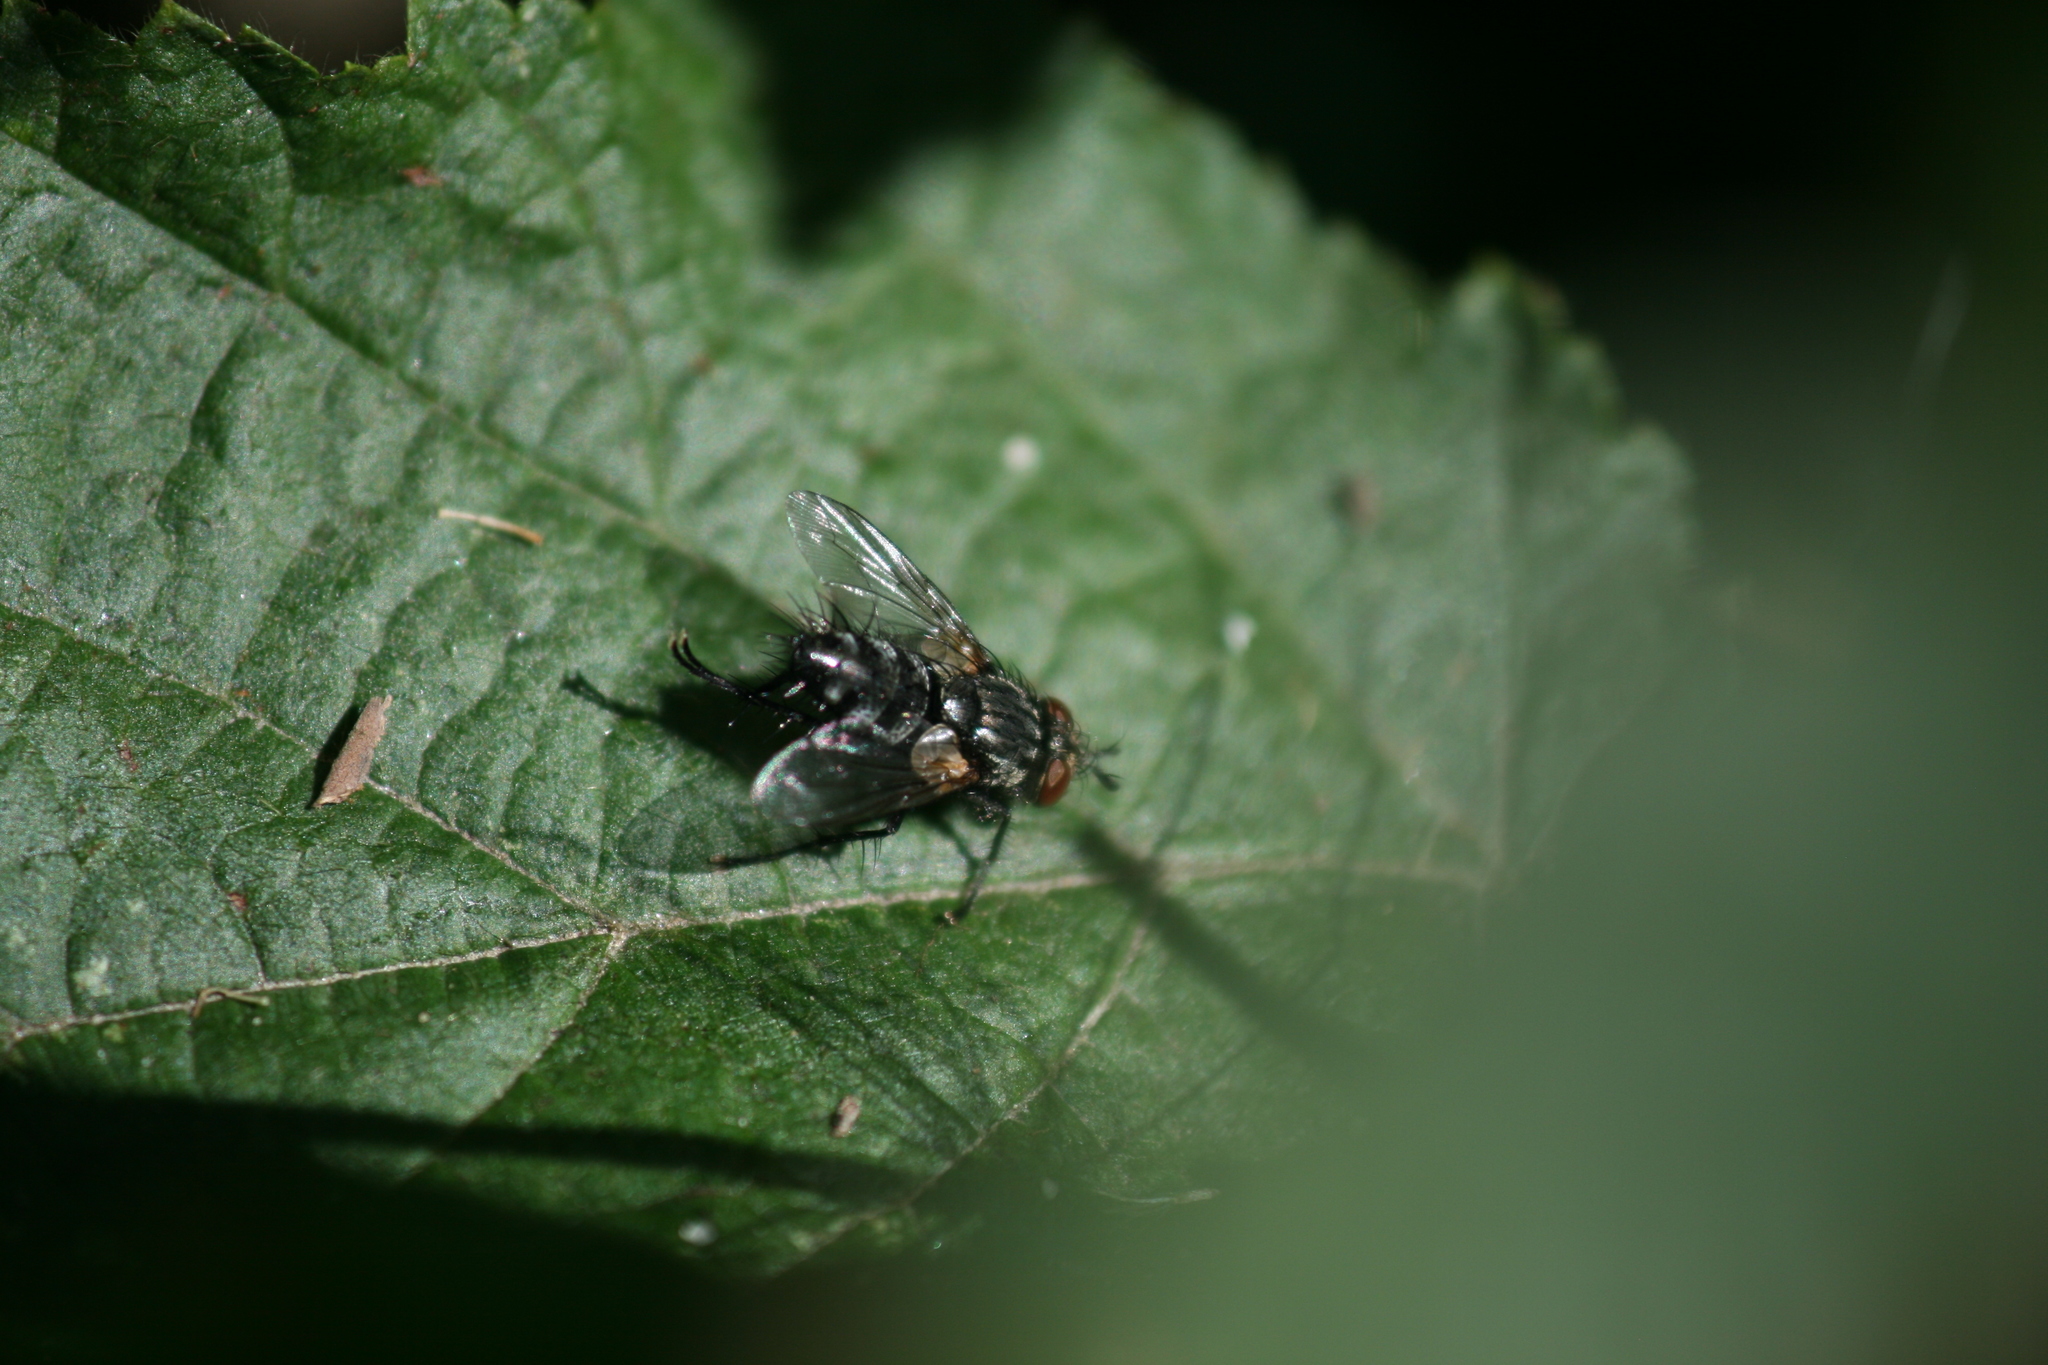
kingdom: Animalia
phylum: Arthropoda
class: Insecta
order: Diptera
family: Tachinidae
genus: Voria
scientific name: Voria ruralis
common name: Parasitic fly
